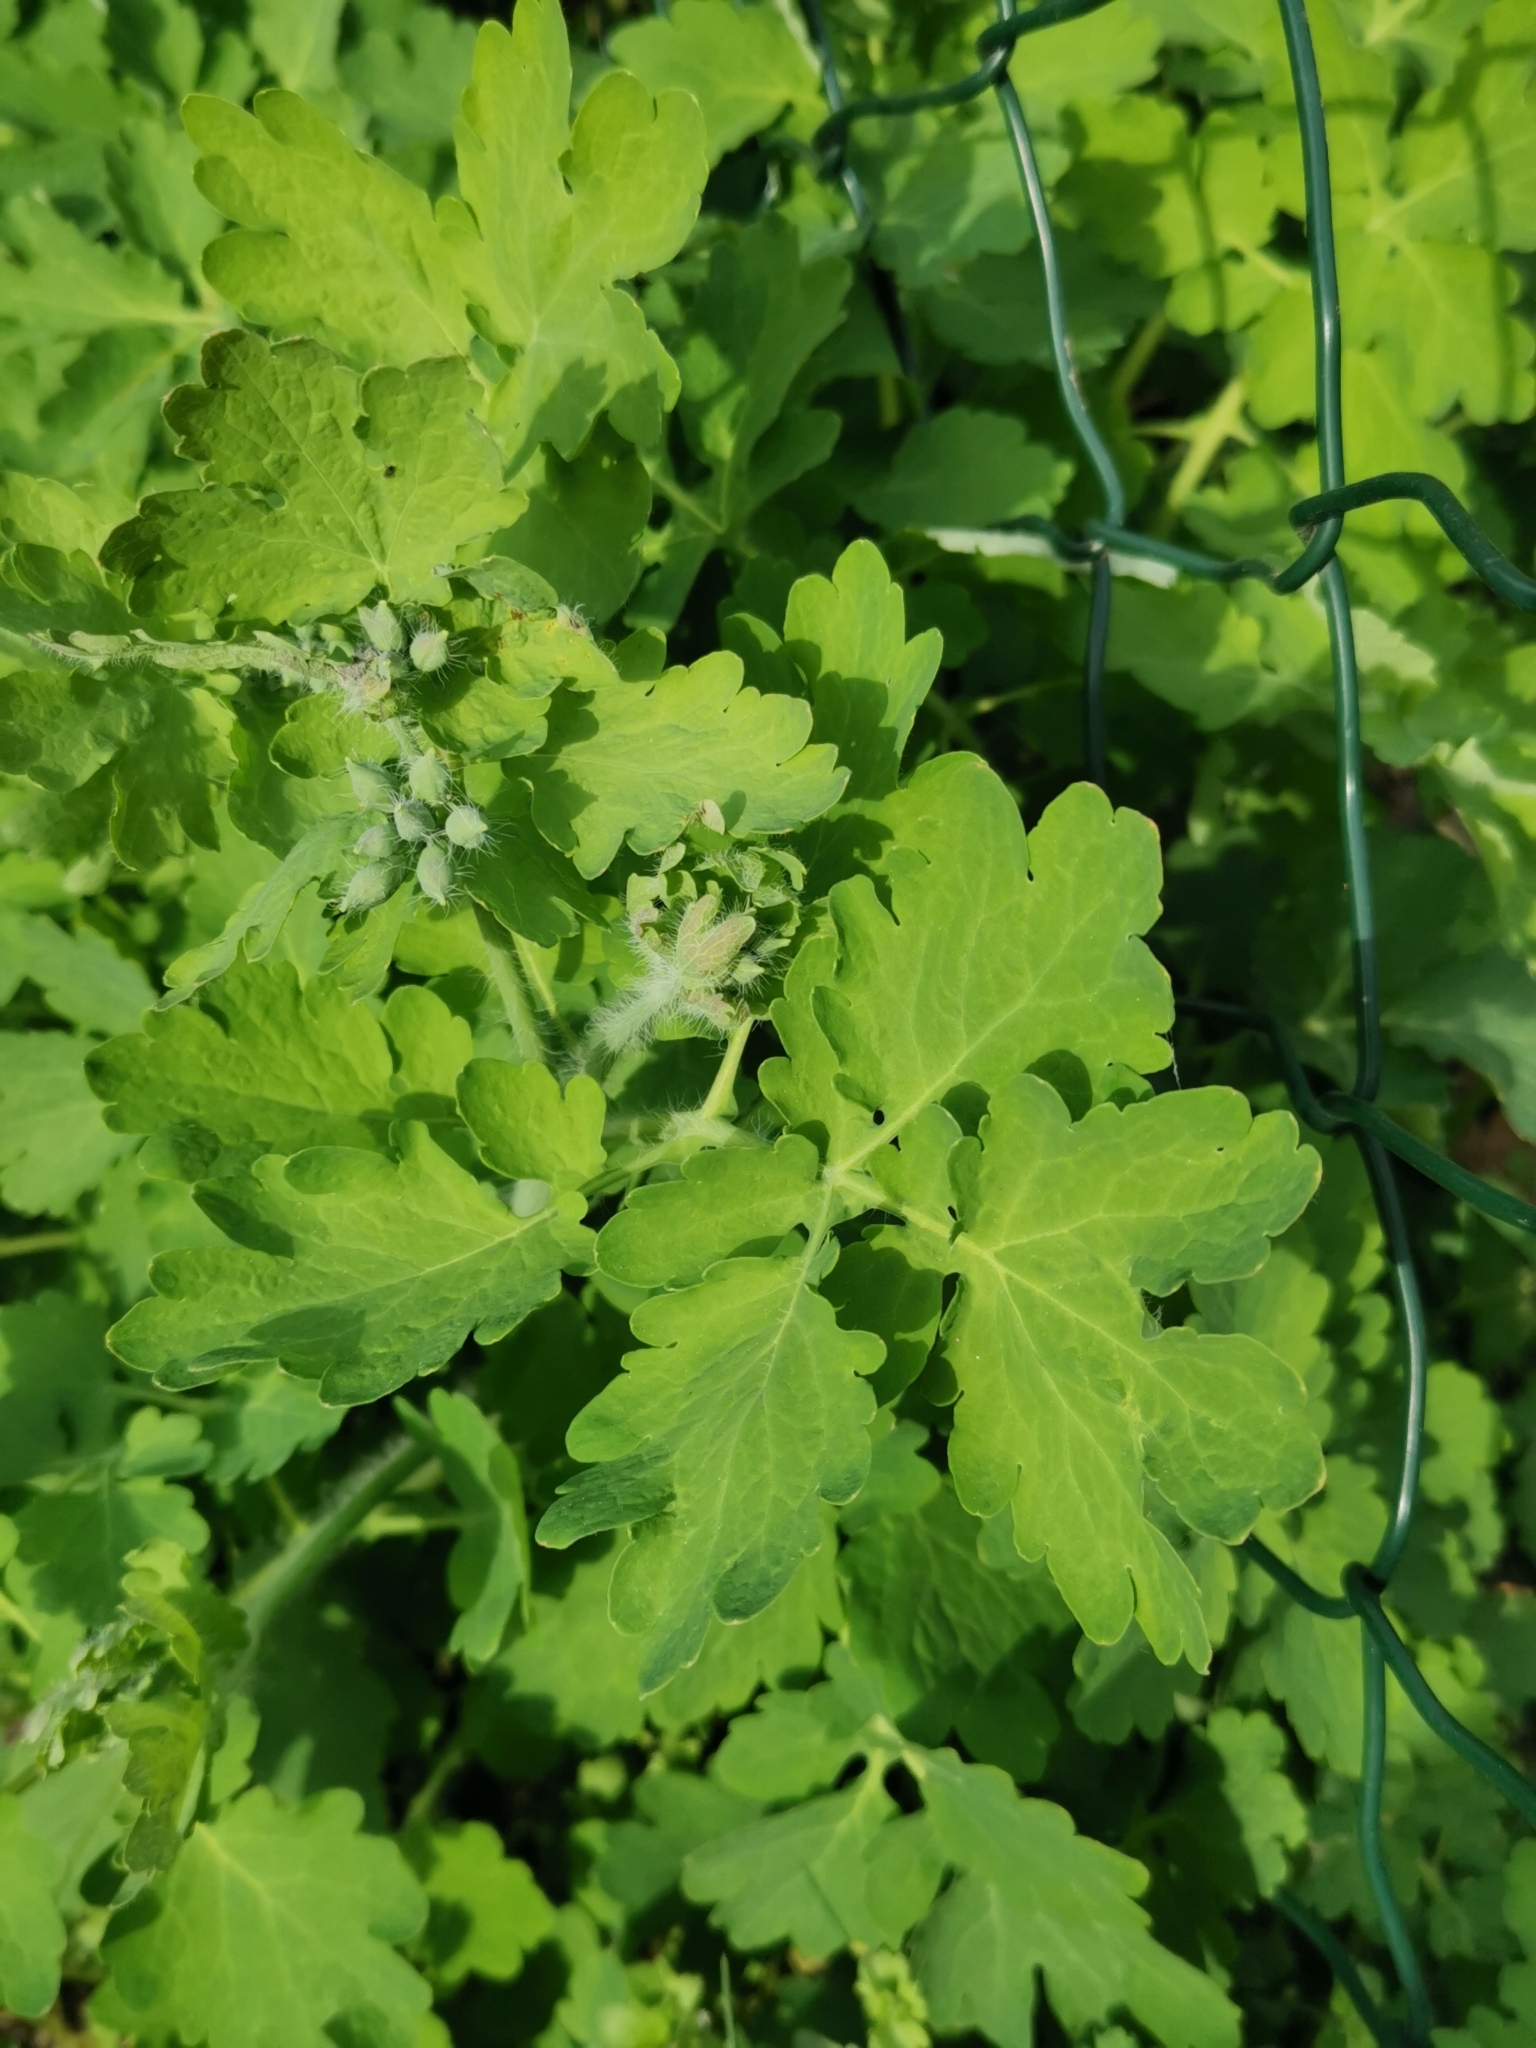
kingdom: Plantae
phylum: Tracheophyta
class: Magnoliopsida
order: Ranunculales
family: Papaveraceae
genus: Chelidonium
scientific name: Chelidonium majus
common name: Greater celandine
